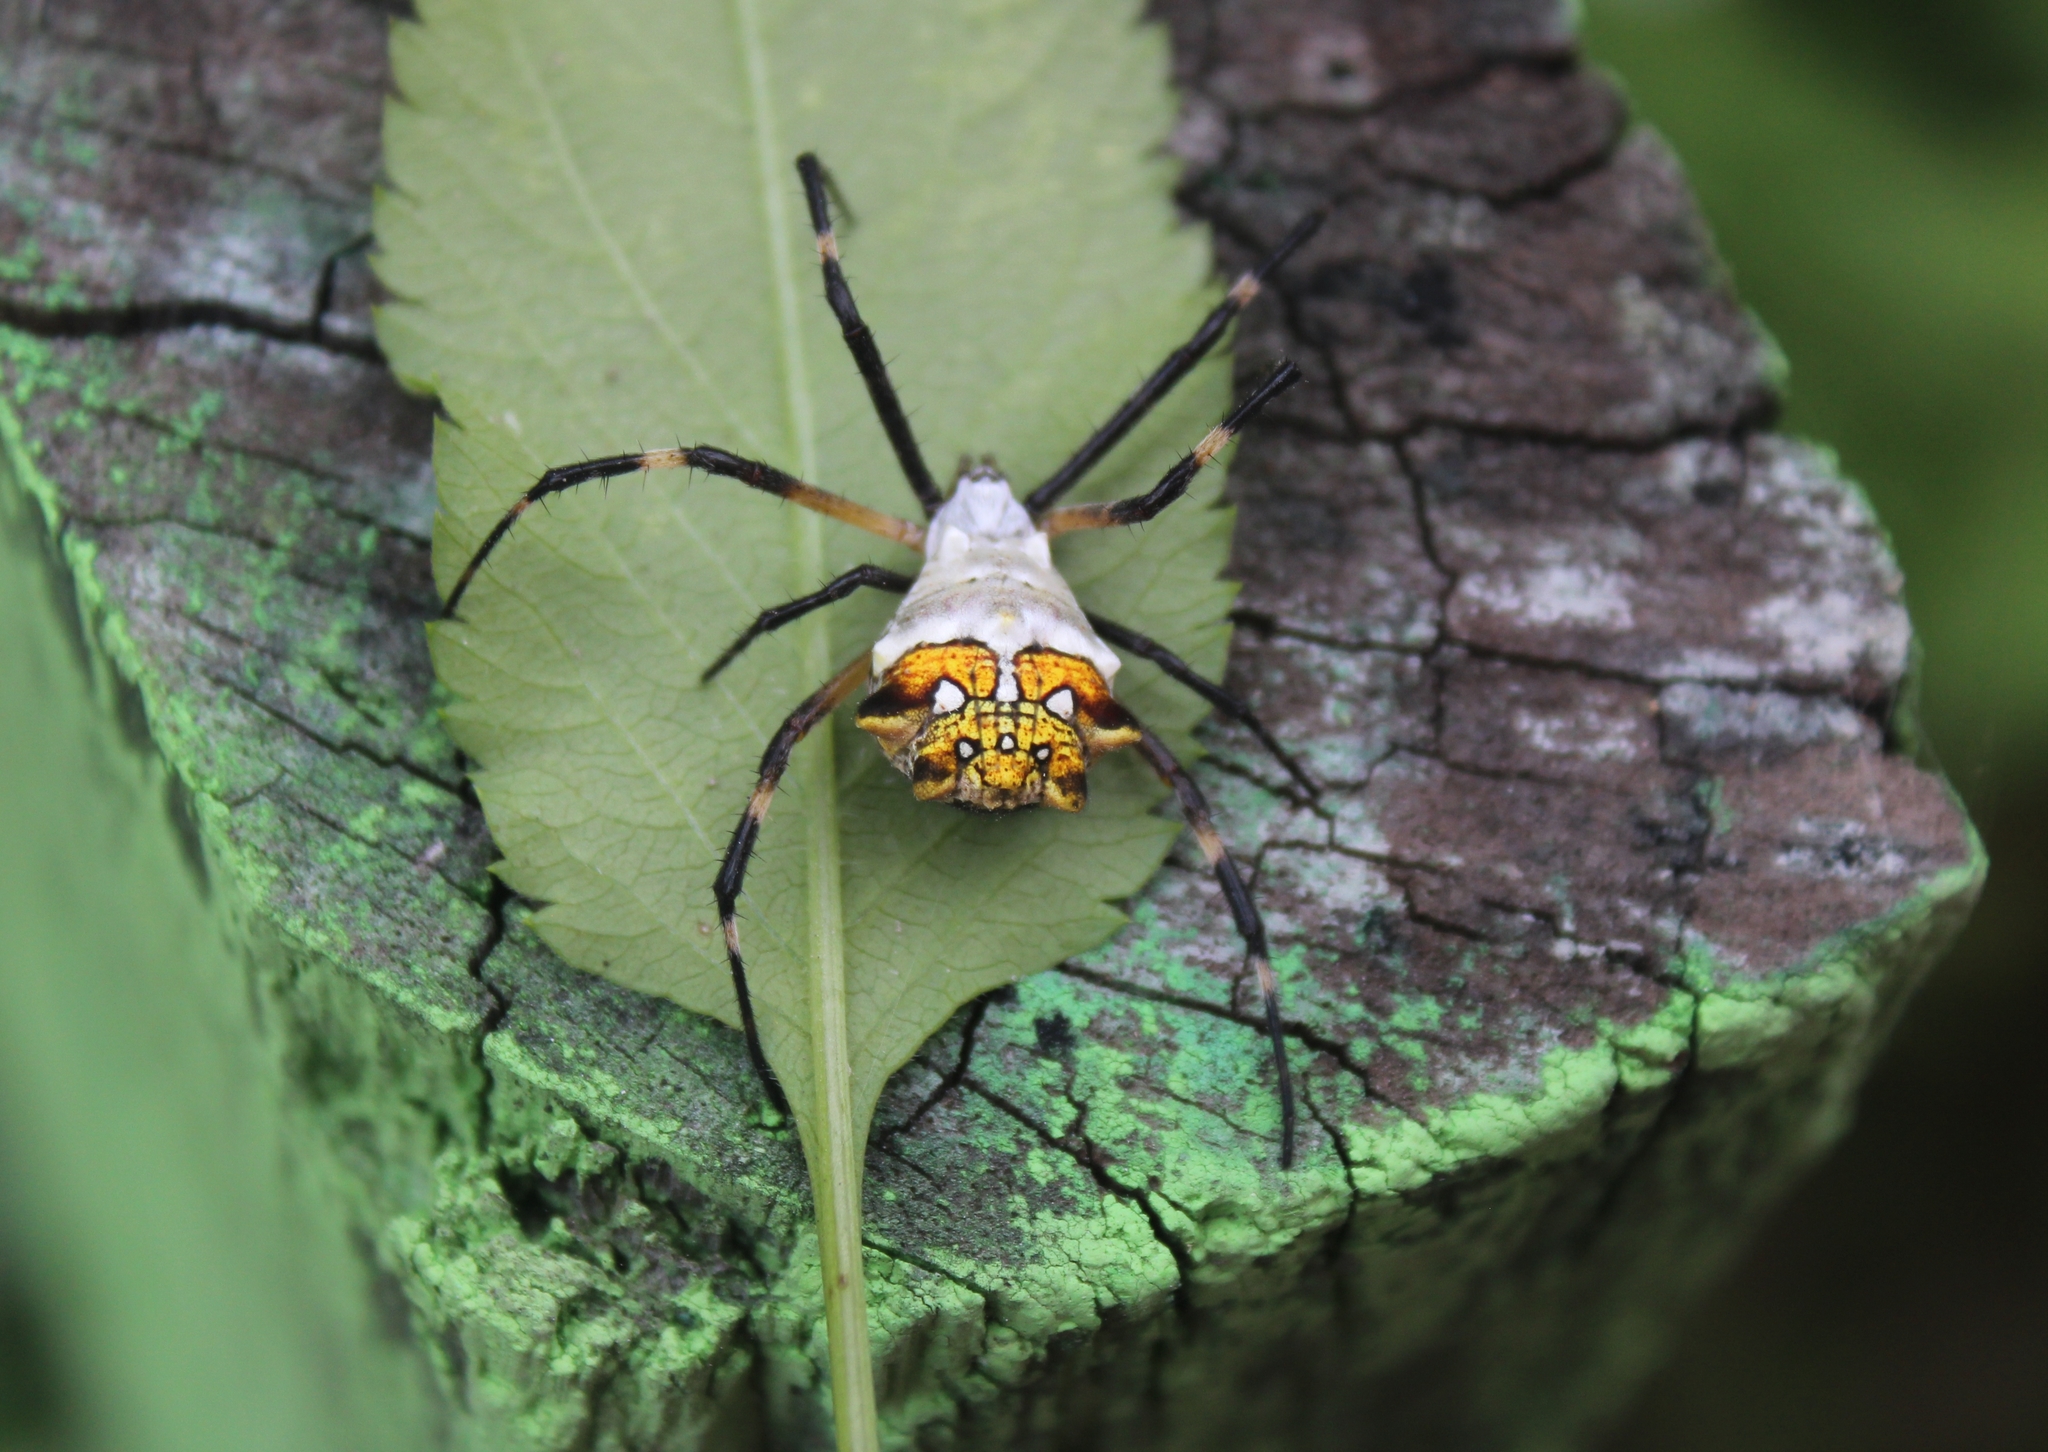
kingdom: Animalia
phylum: Arthropoda
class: Arachnida
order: Araneae
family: Araneidae
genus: Argiope
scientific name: Argiope argentata
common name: Orb weavers
